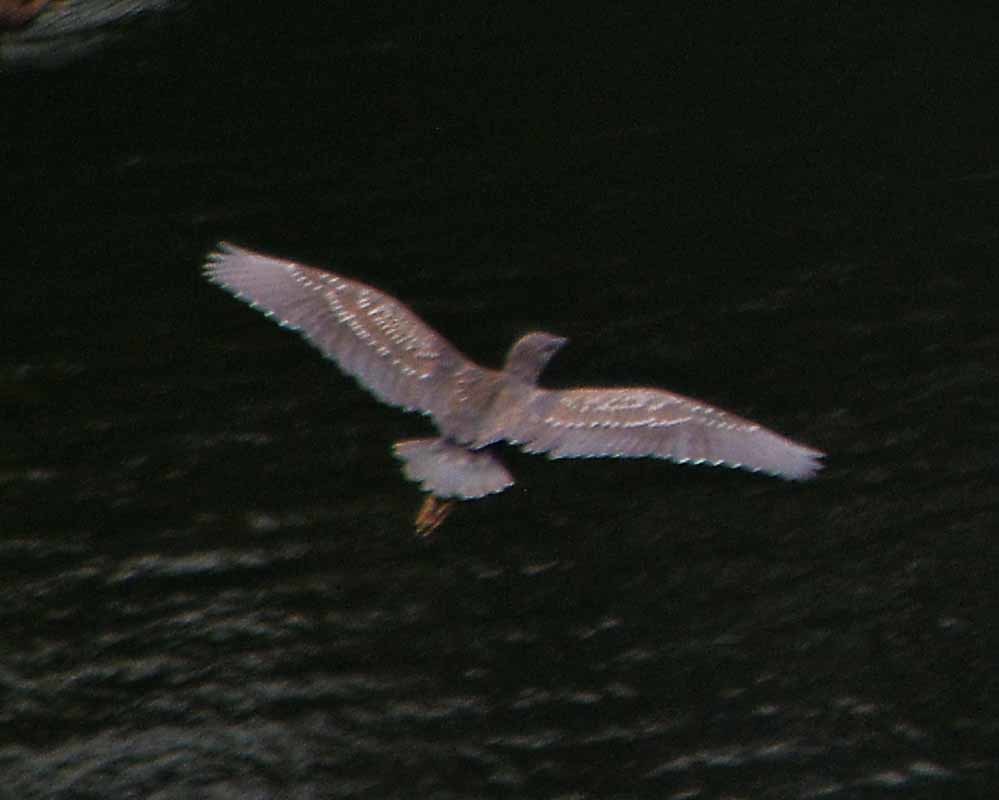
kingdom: Animalia
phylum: Chordata
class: Aves
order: Pelecaniformes
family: Ardeidae
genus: Nycticorax
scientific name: Nycticorax nycticorax
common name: Black-crowned night heron
